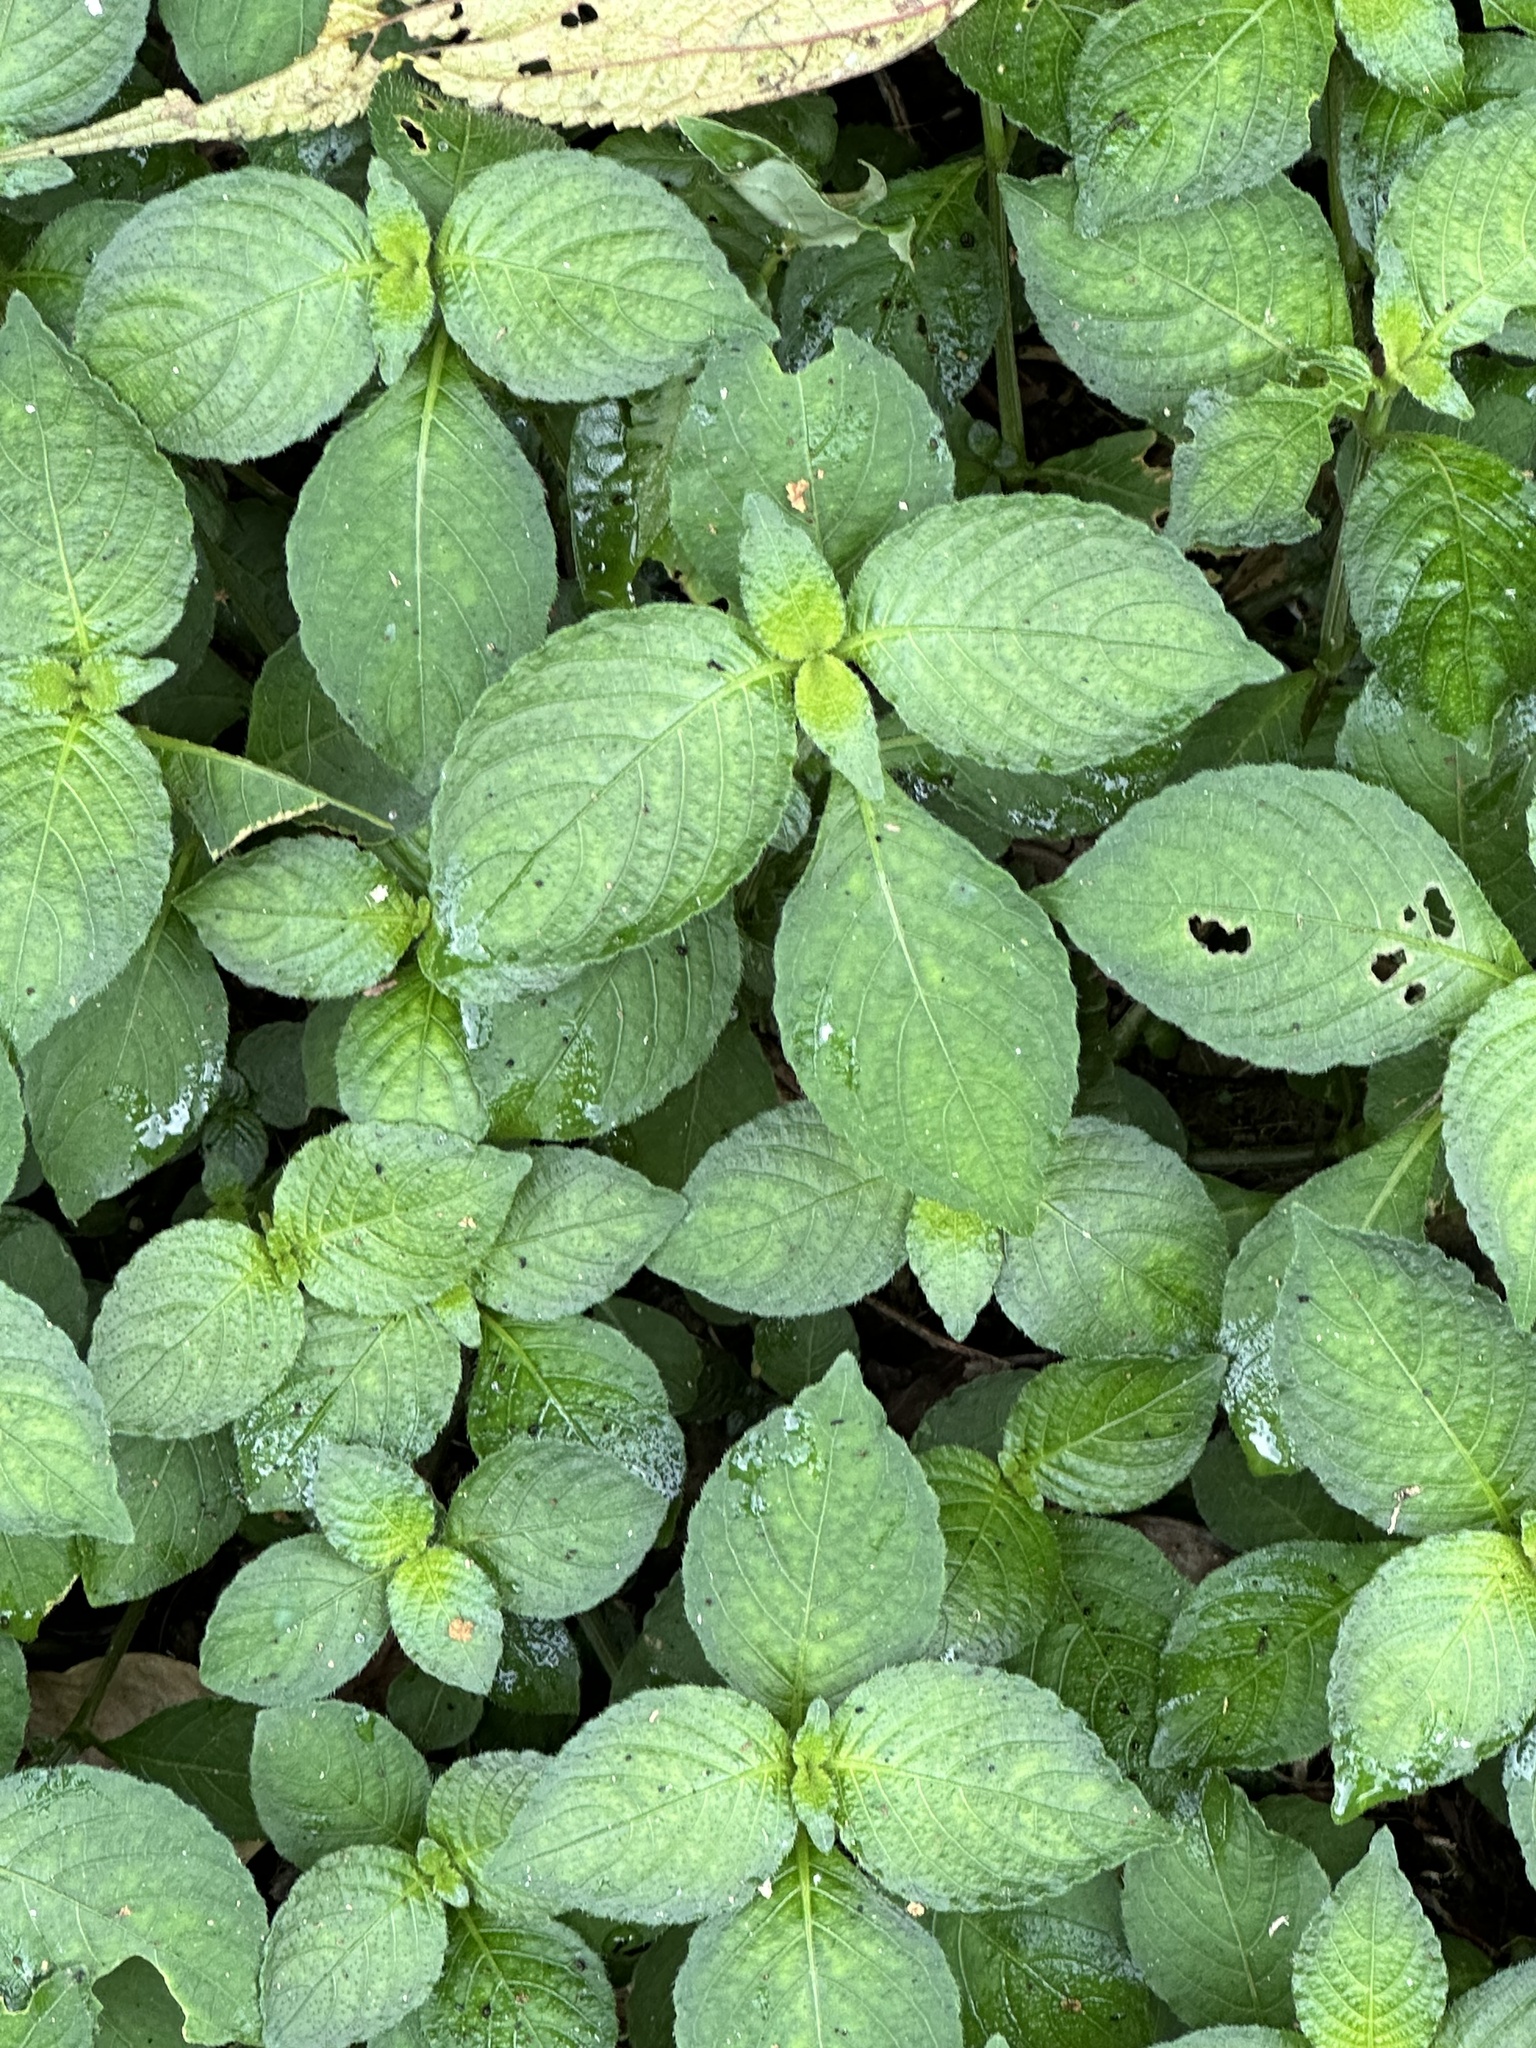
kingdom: Plantae
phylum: Tracheophyta
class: Magnoliopsida
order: Lamiales
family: Acanthaceae
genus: Strobilanthes
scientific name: Strobilanthes formosana
